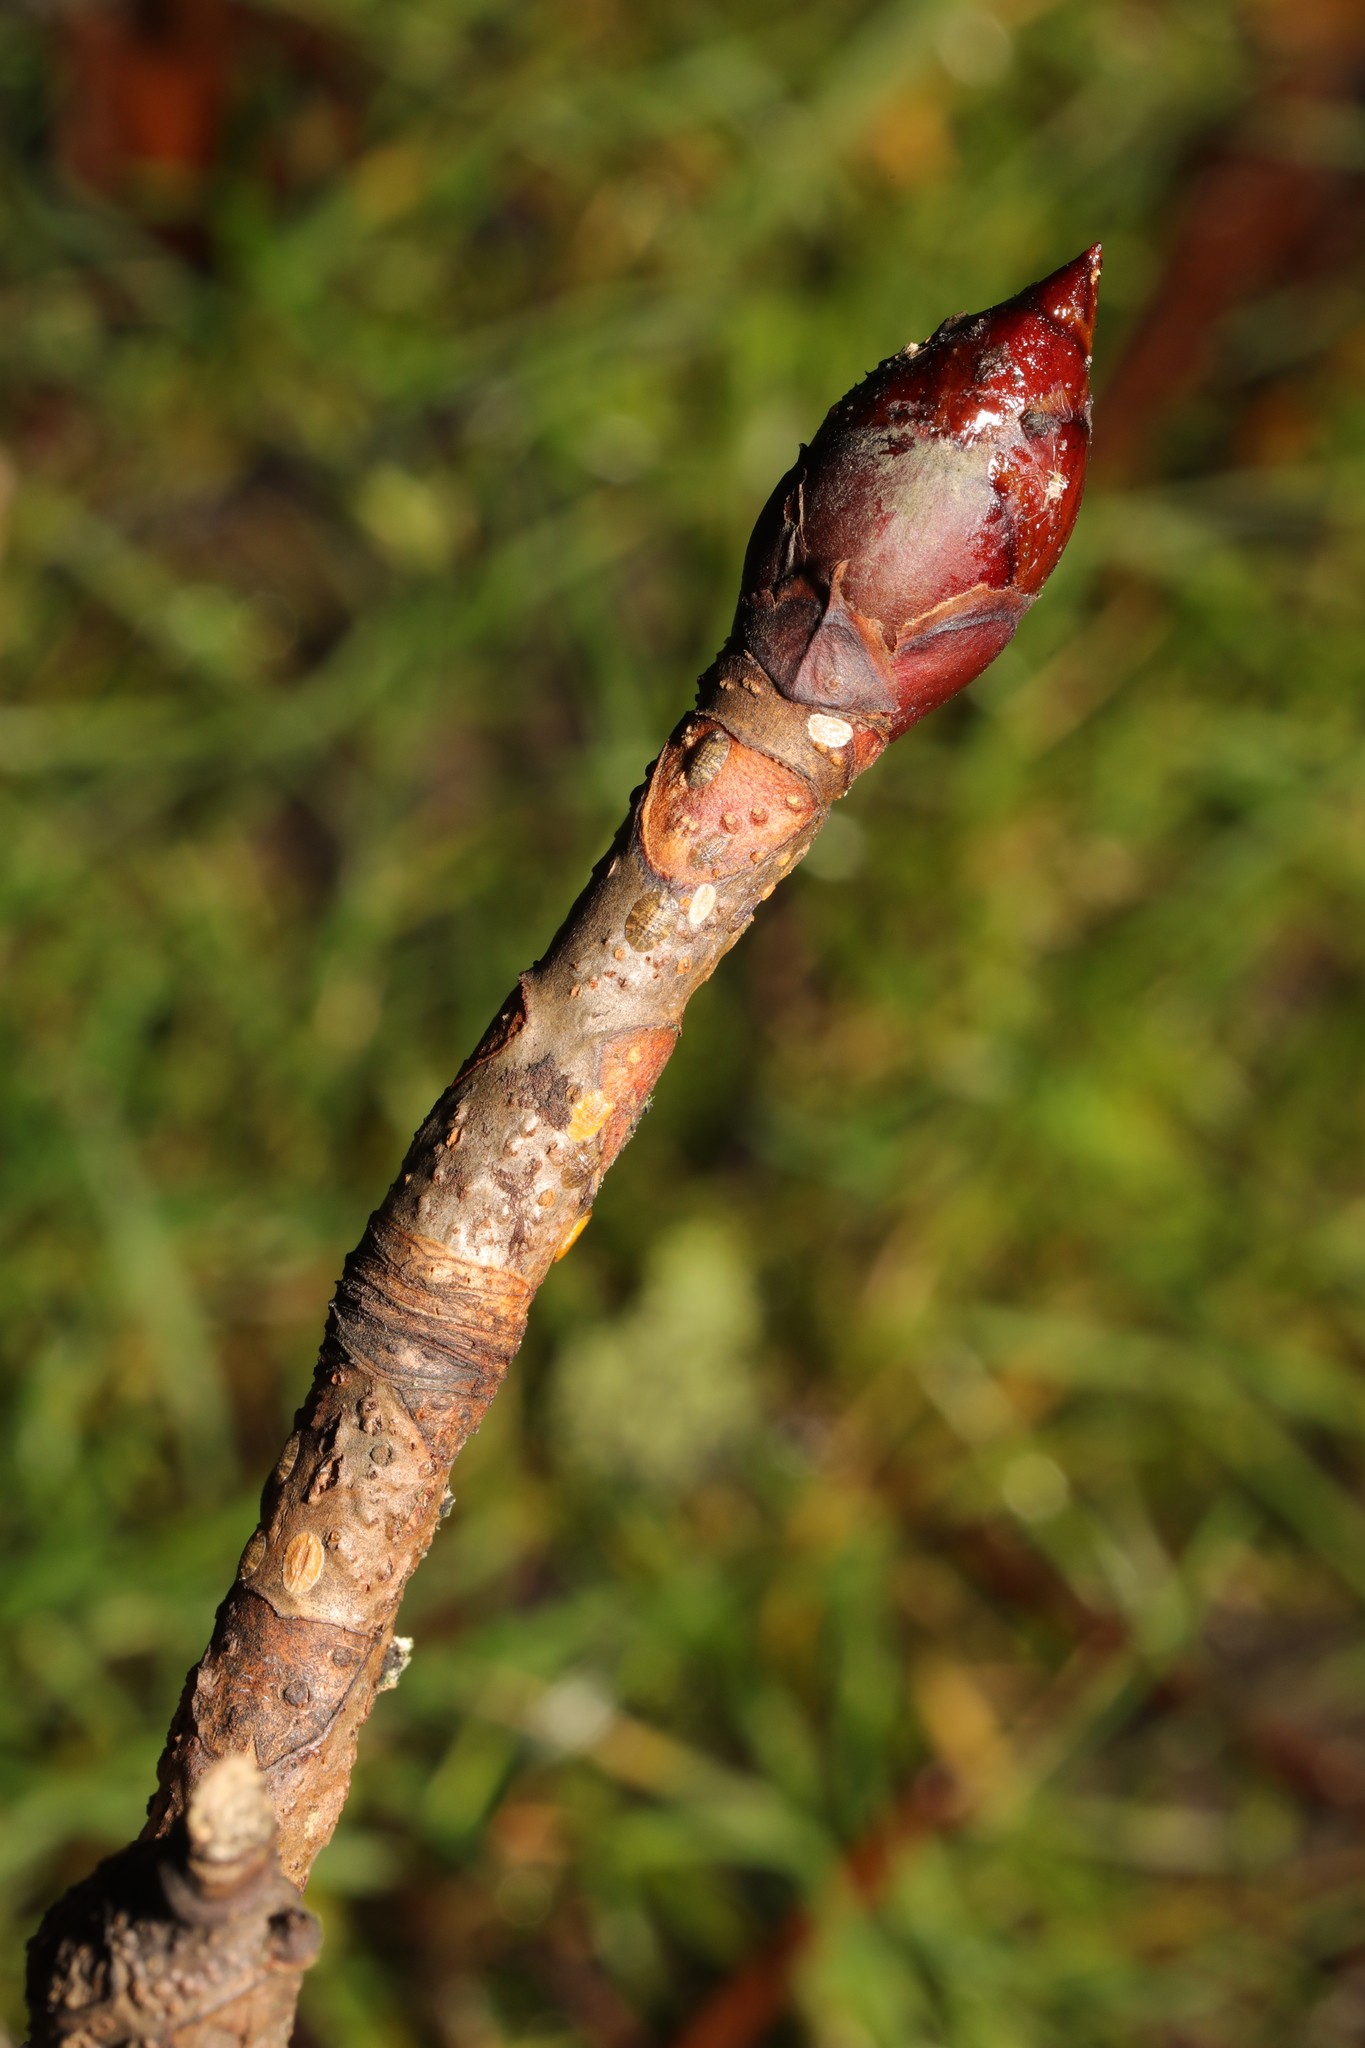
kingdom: Plantae
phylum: Tracheophyta
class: Magnoliopsida
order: Sapindales
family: Sapindaceae
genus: Aesculus
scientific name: Aesculus hippocastanum
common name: Horse-chestnut
